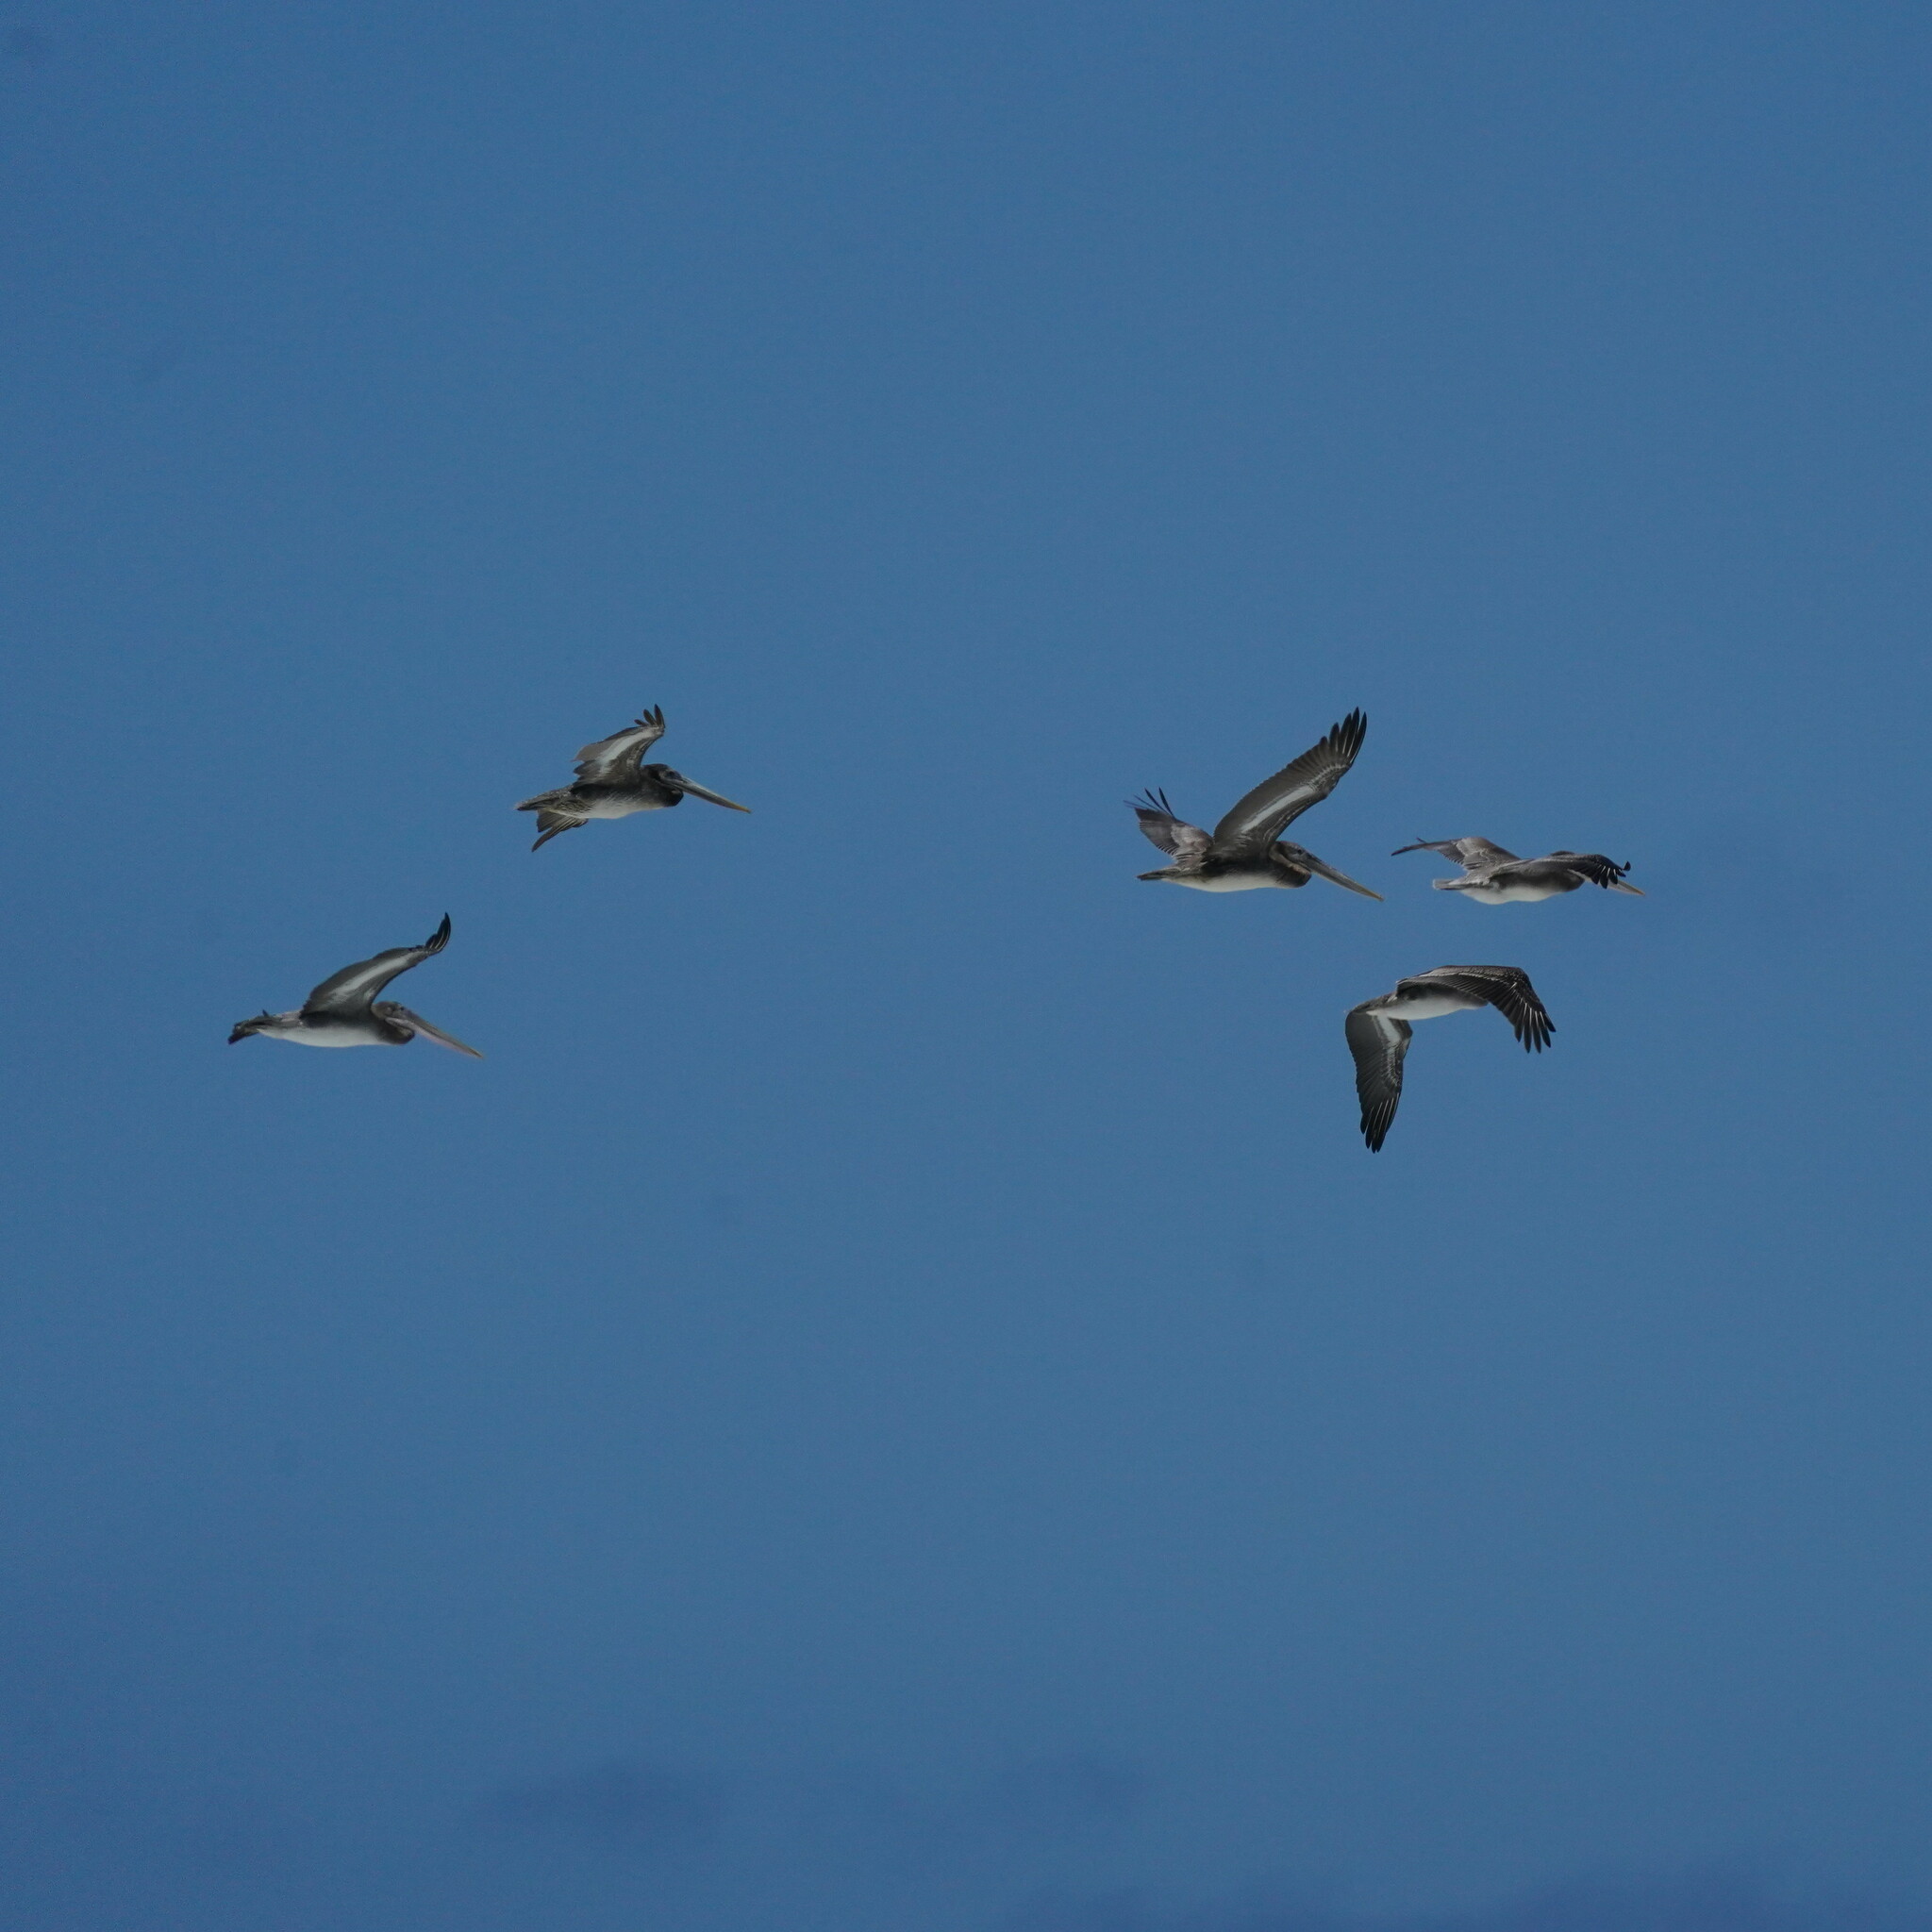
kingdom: Animalia
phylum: Chordata
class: Aves
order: Pelecaniformes
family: Pelecanidae
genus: Pelecanus
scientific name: Pelecanus occidentalis
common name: Brown pelican
